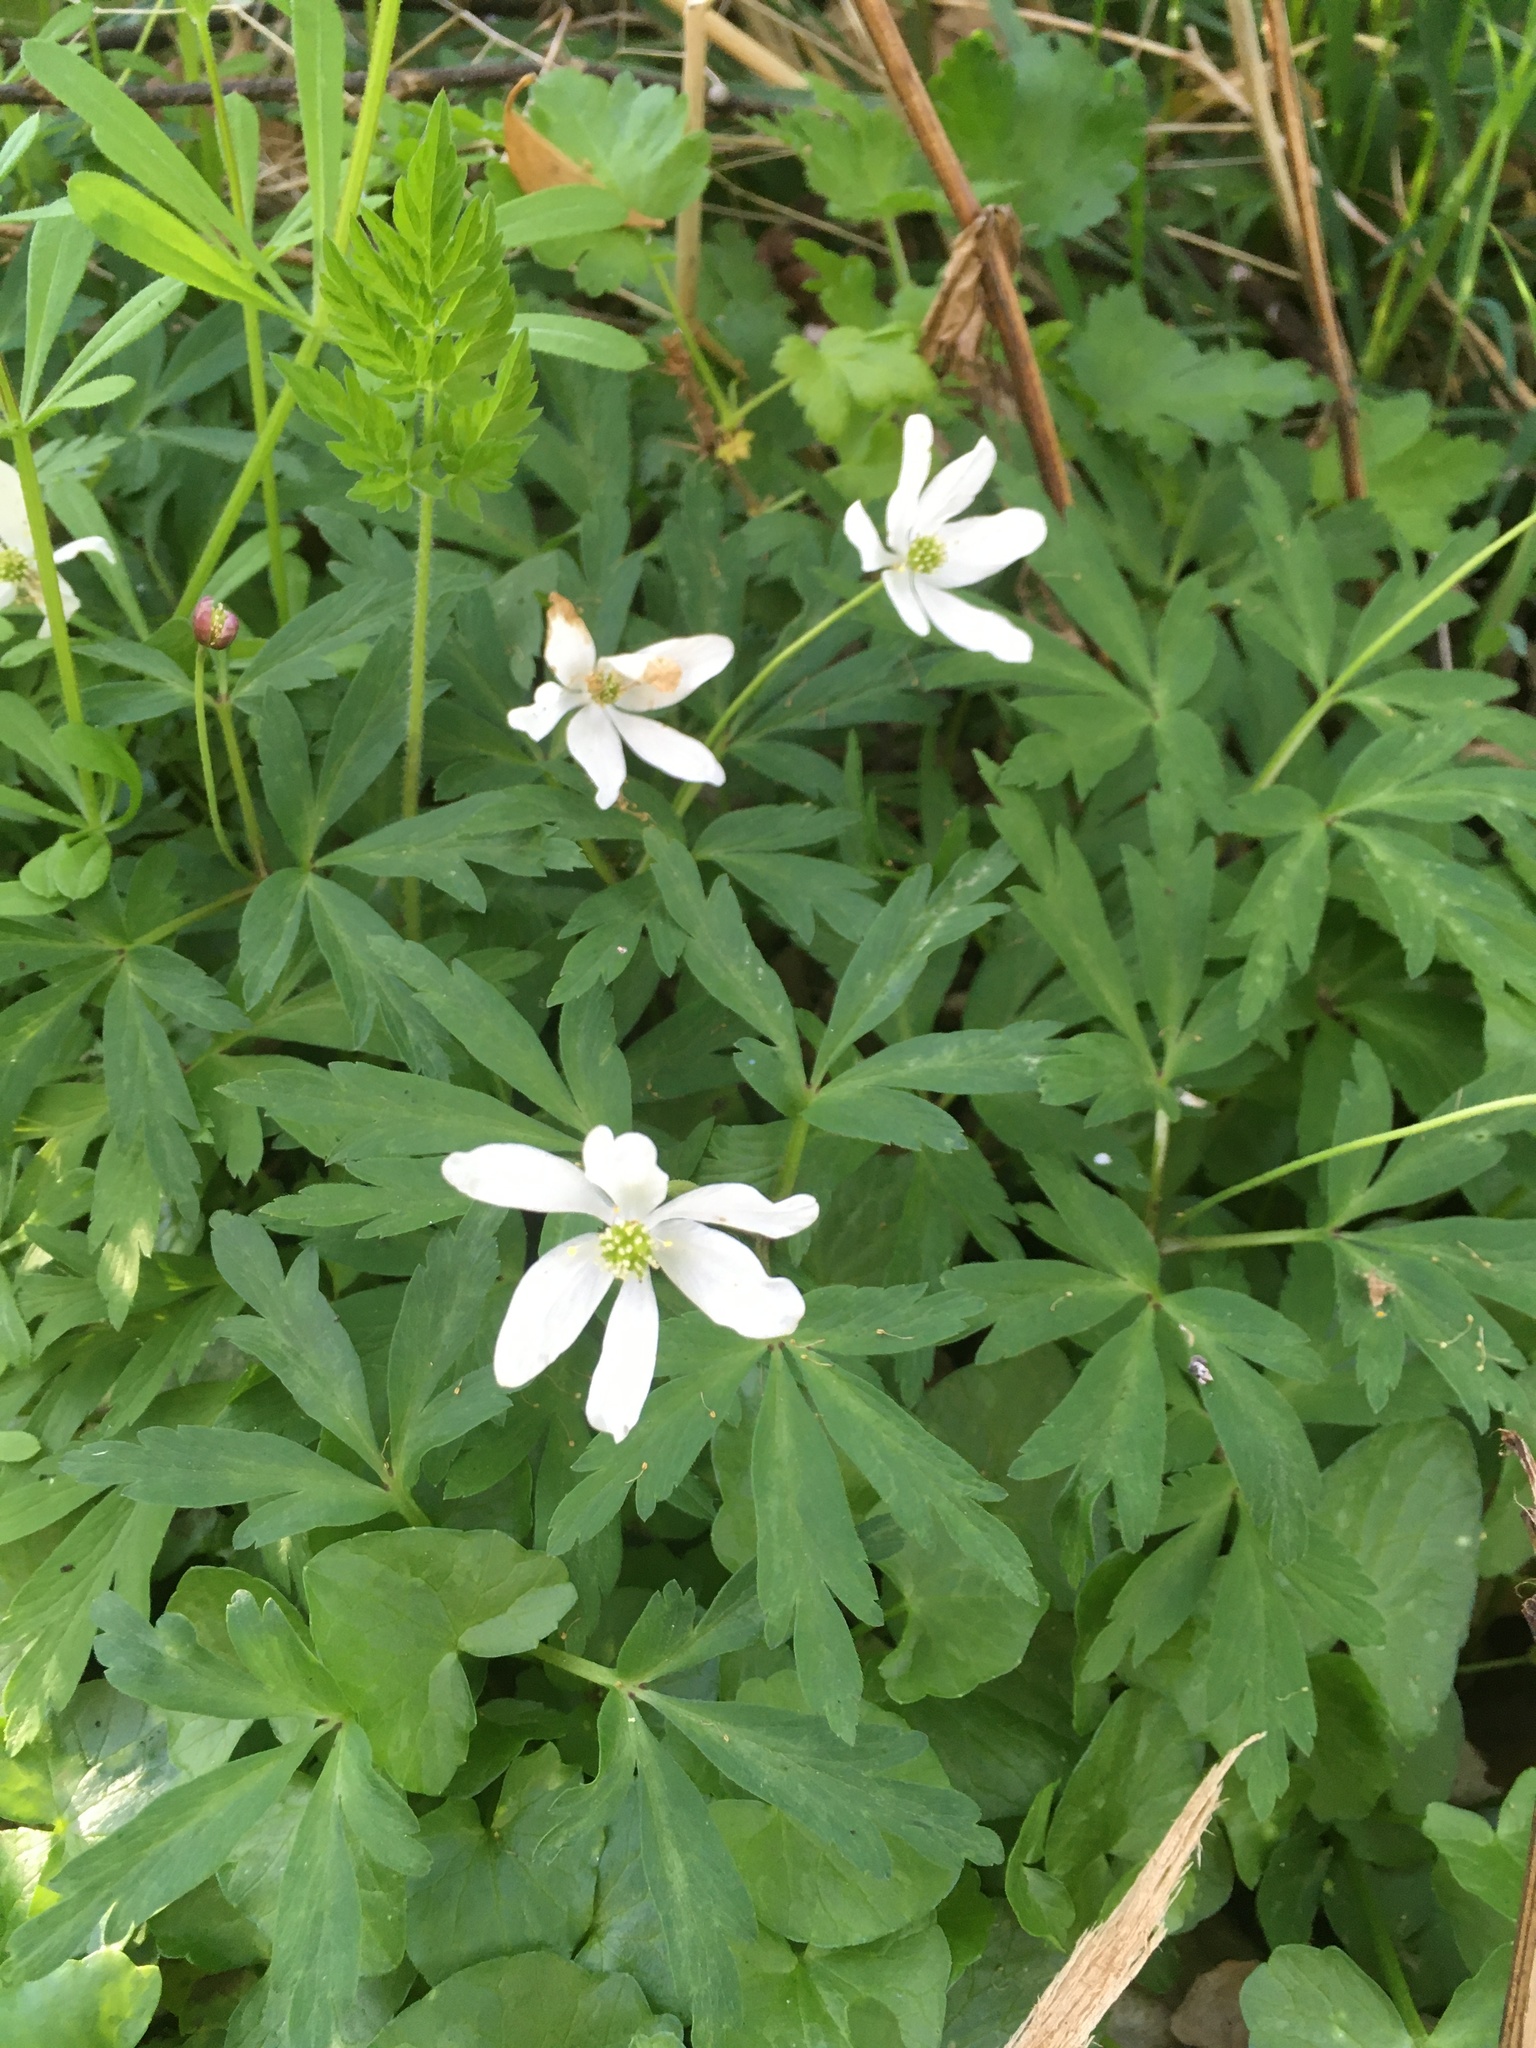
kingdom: Plantae
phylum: Tracheophyta
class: Magnoliopsida
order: Ranunculales
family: Ranunculaceae
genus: Anemone
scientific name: Anemone nemorosa
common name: Wood anemone
